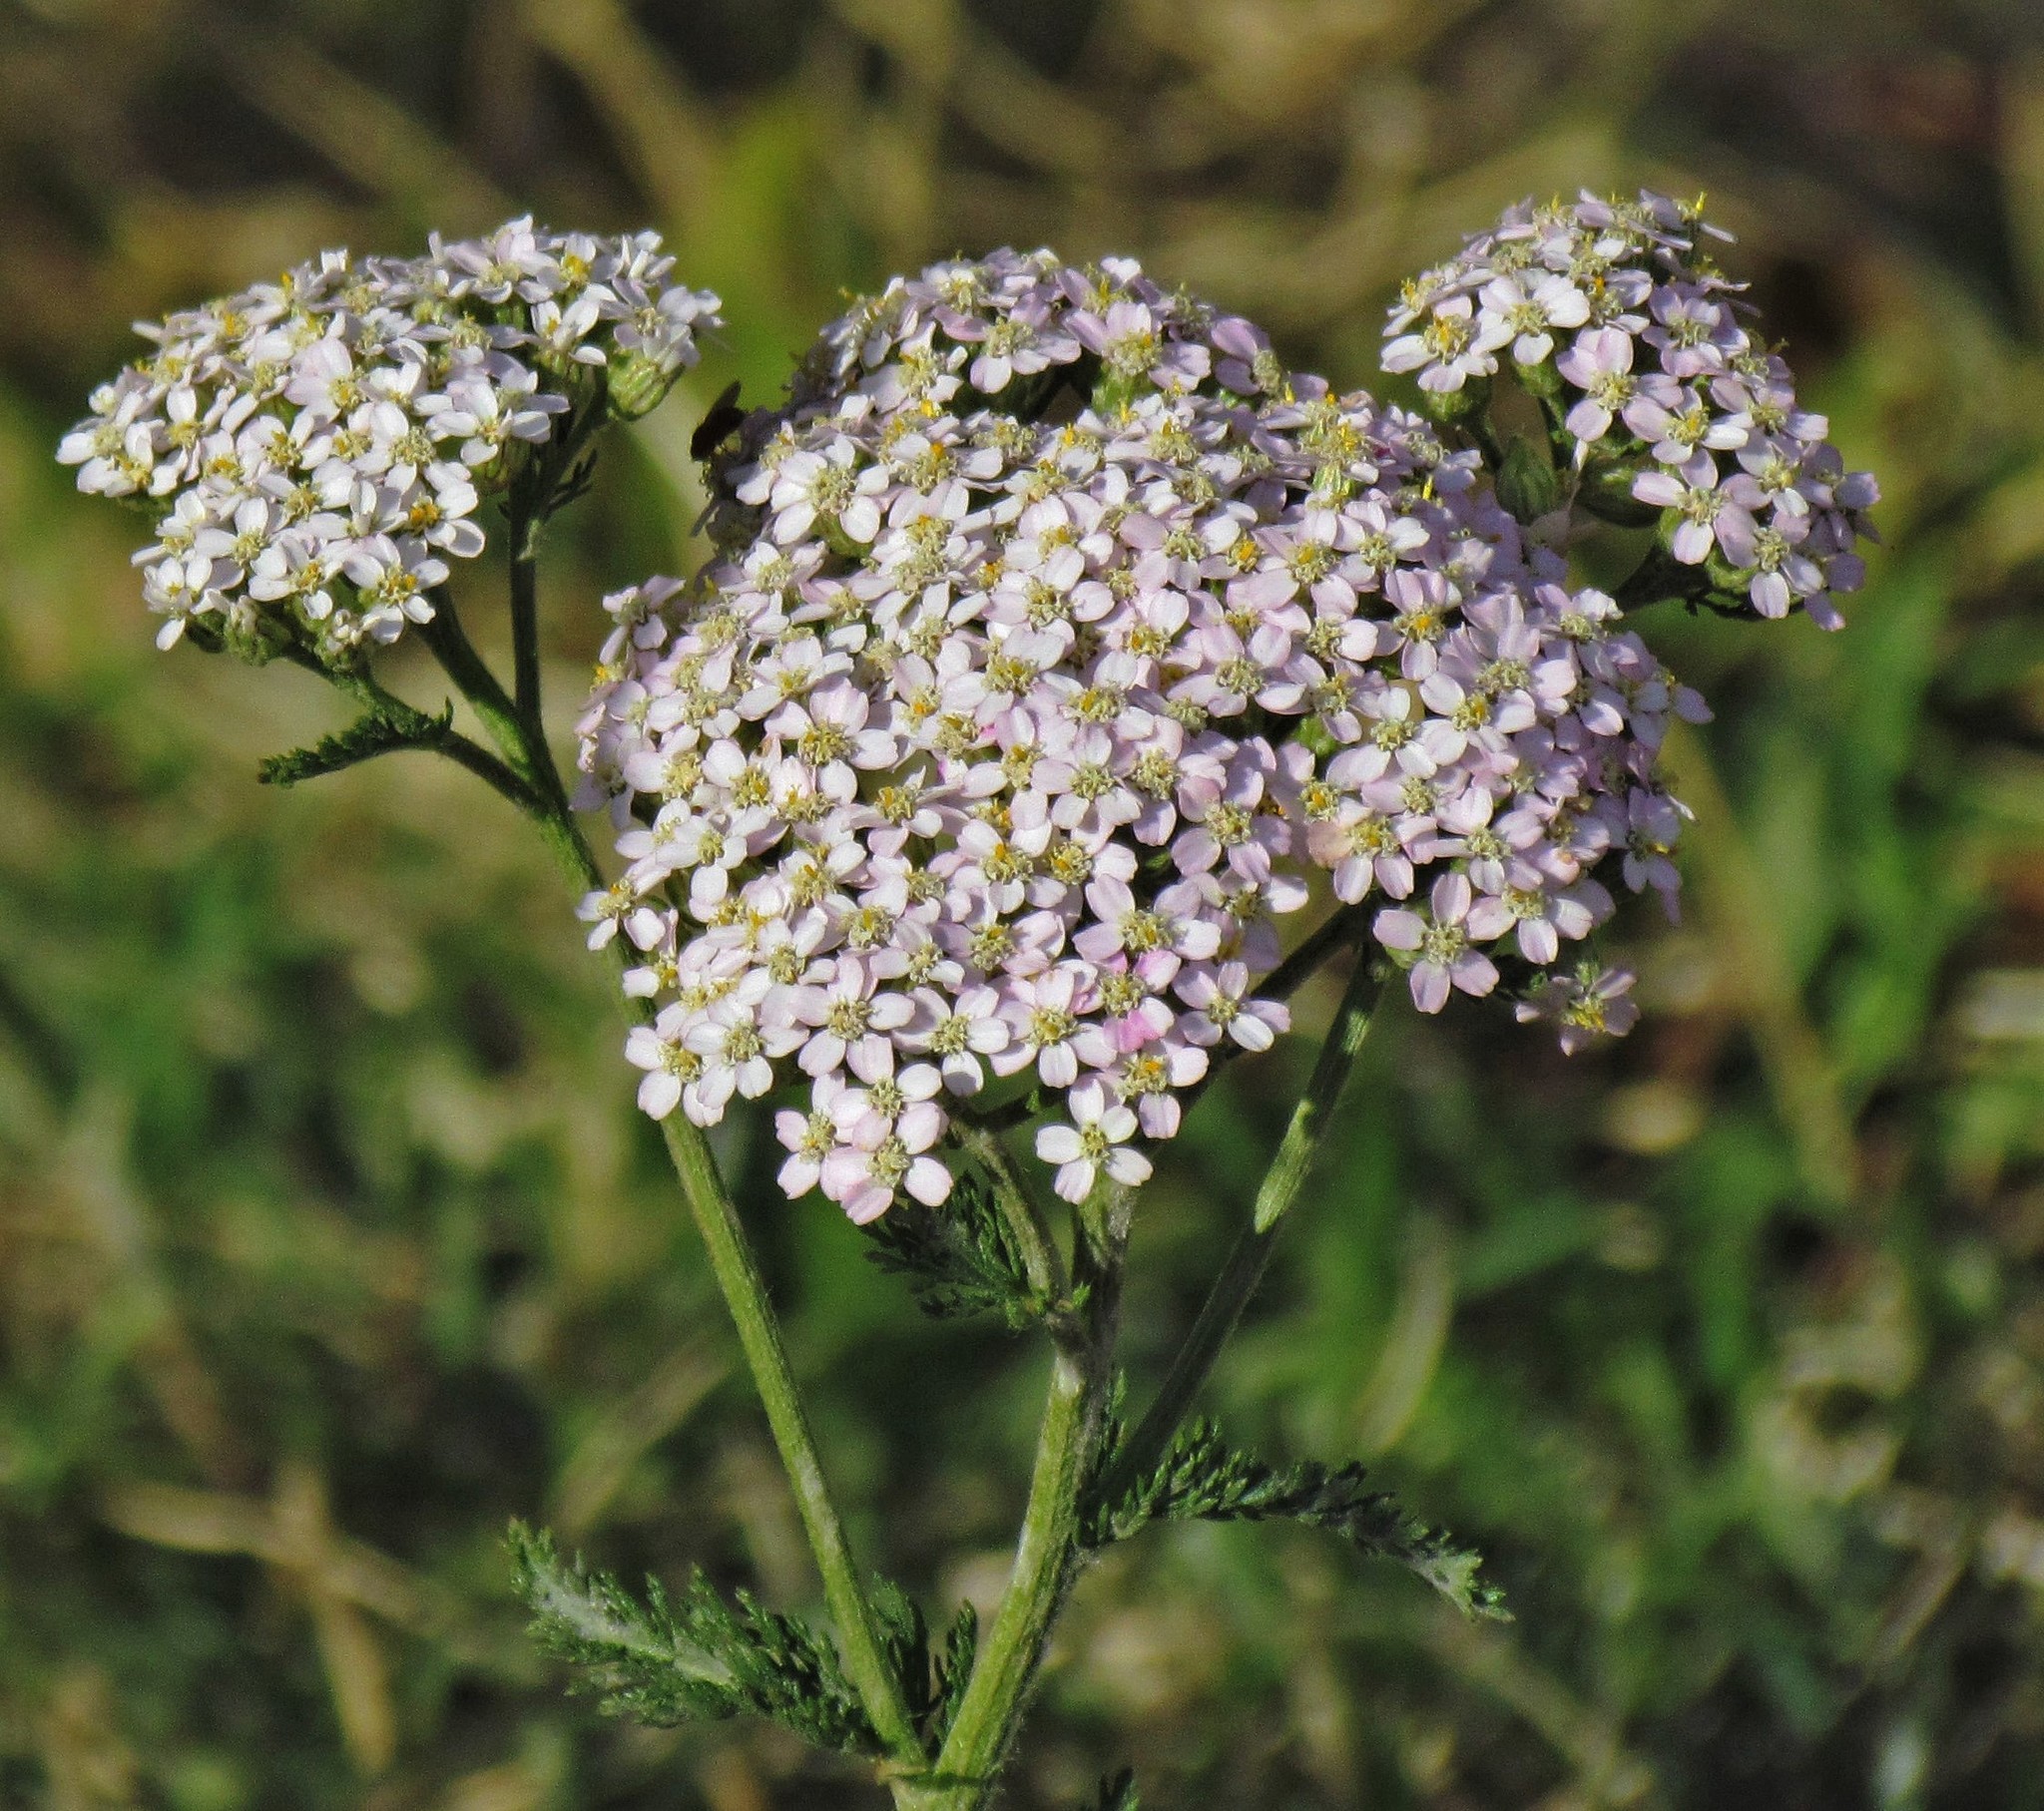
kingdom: Plantae
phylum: Tracheophyta
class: Magnoliopsida
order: Asterales
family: Asteraceae
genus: Achillea
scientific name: Achillea millefolium
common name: Yarrow
